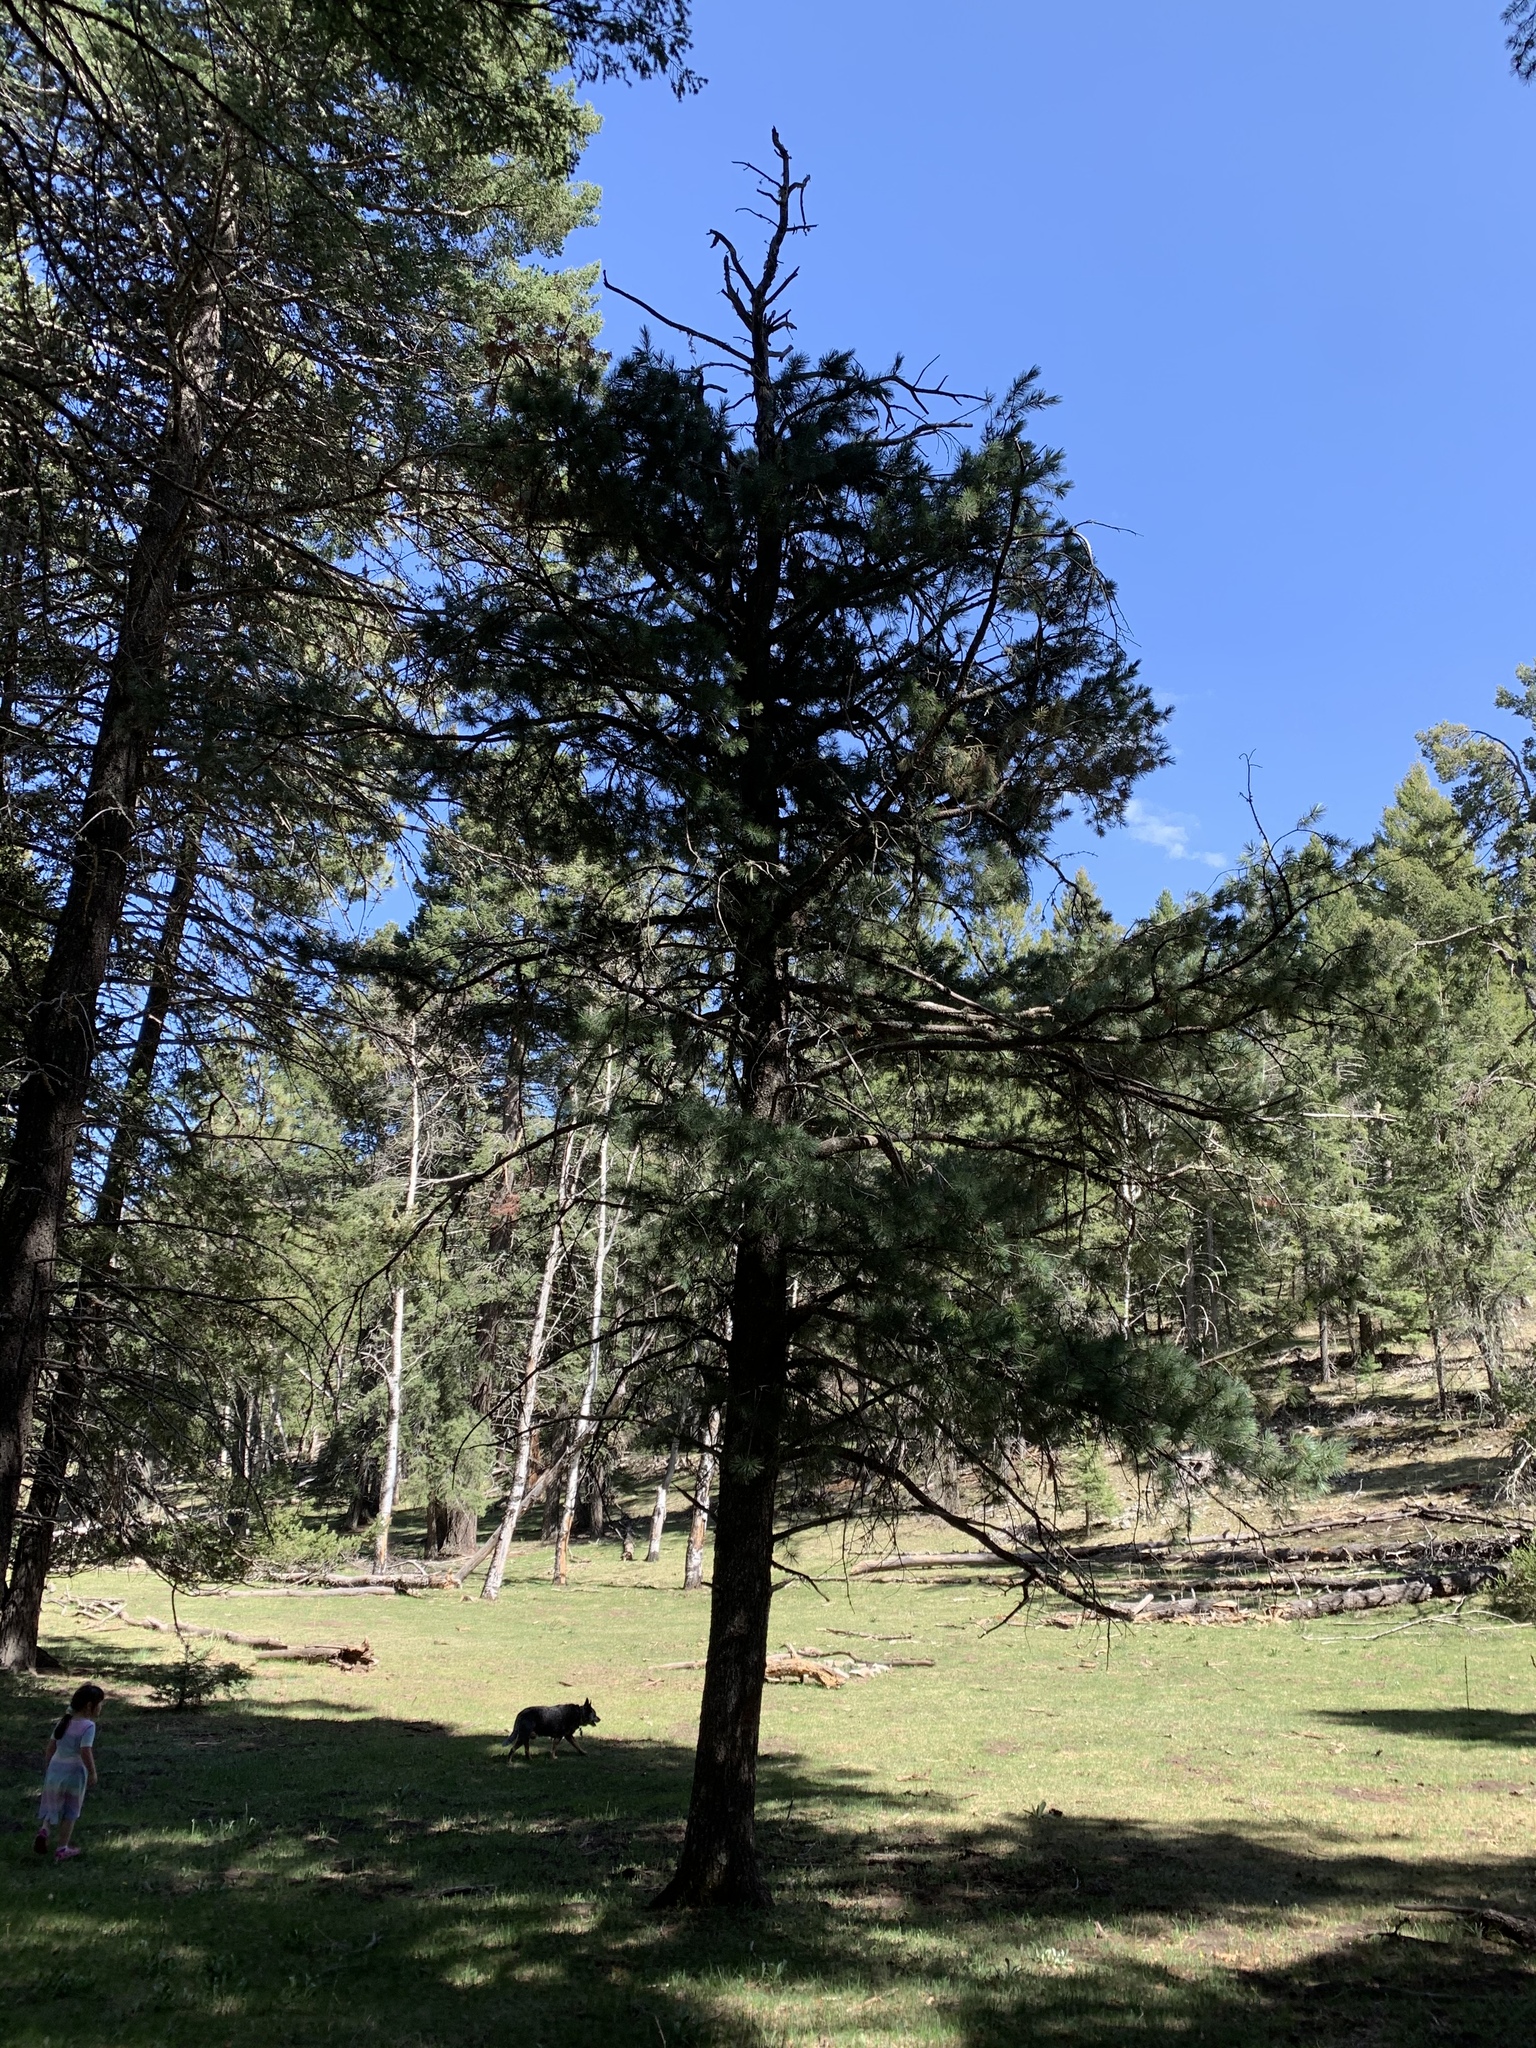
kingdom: Plantae
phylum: Tracheophyta
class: Pinopsida
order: Pinales
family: Pinaceae
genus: Pinus
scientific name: Pinus strobiformis
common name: Southwestern white pine
